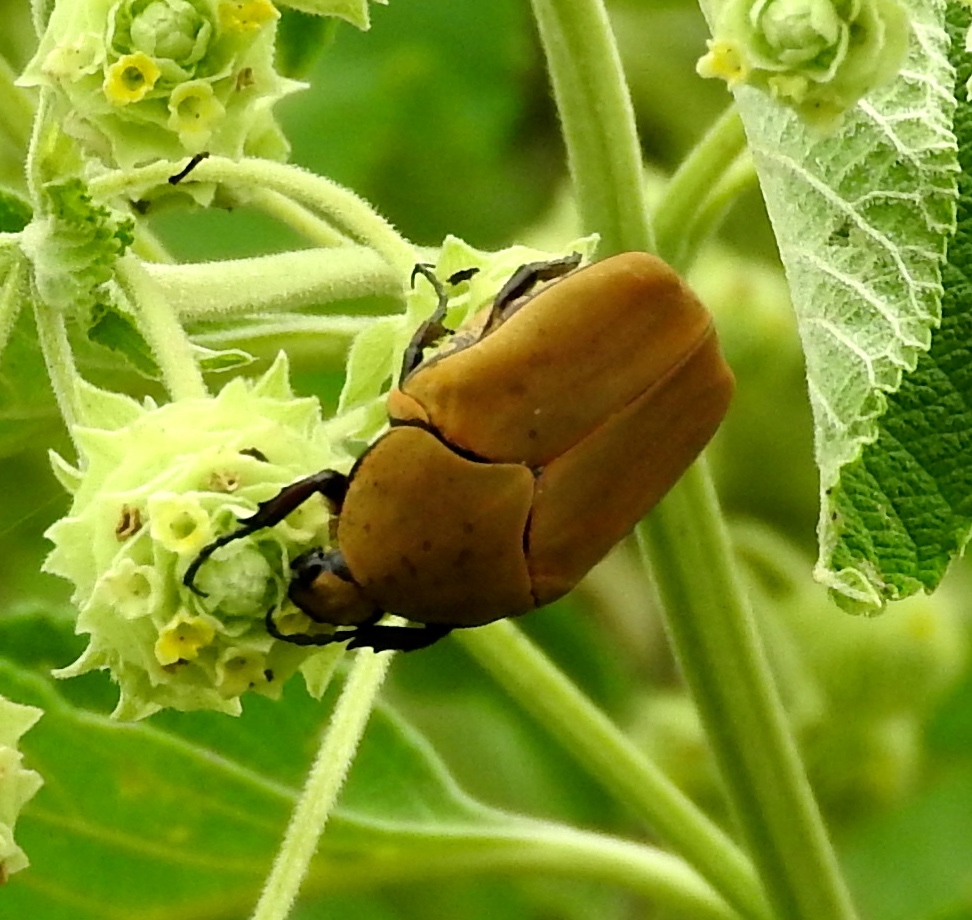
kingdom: Animalia
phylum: Arthropoda
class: Insecta
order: Coleoptera
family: Scarabaeidae
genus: Hologymnetis
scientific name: Hologymnetis cinerea
